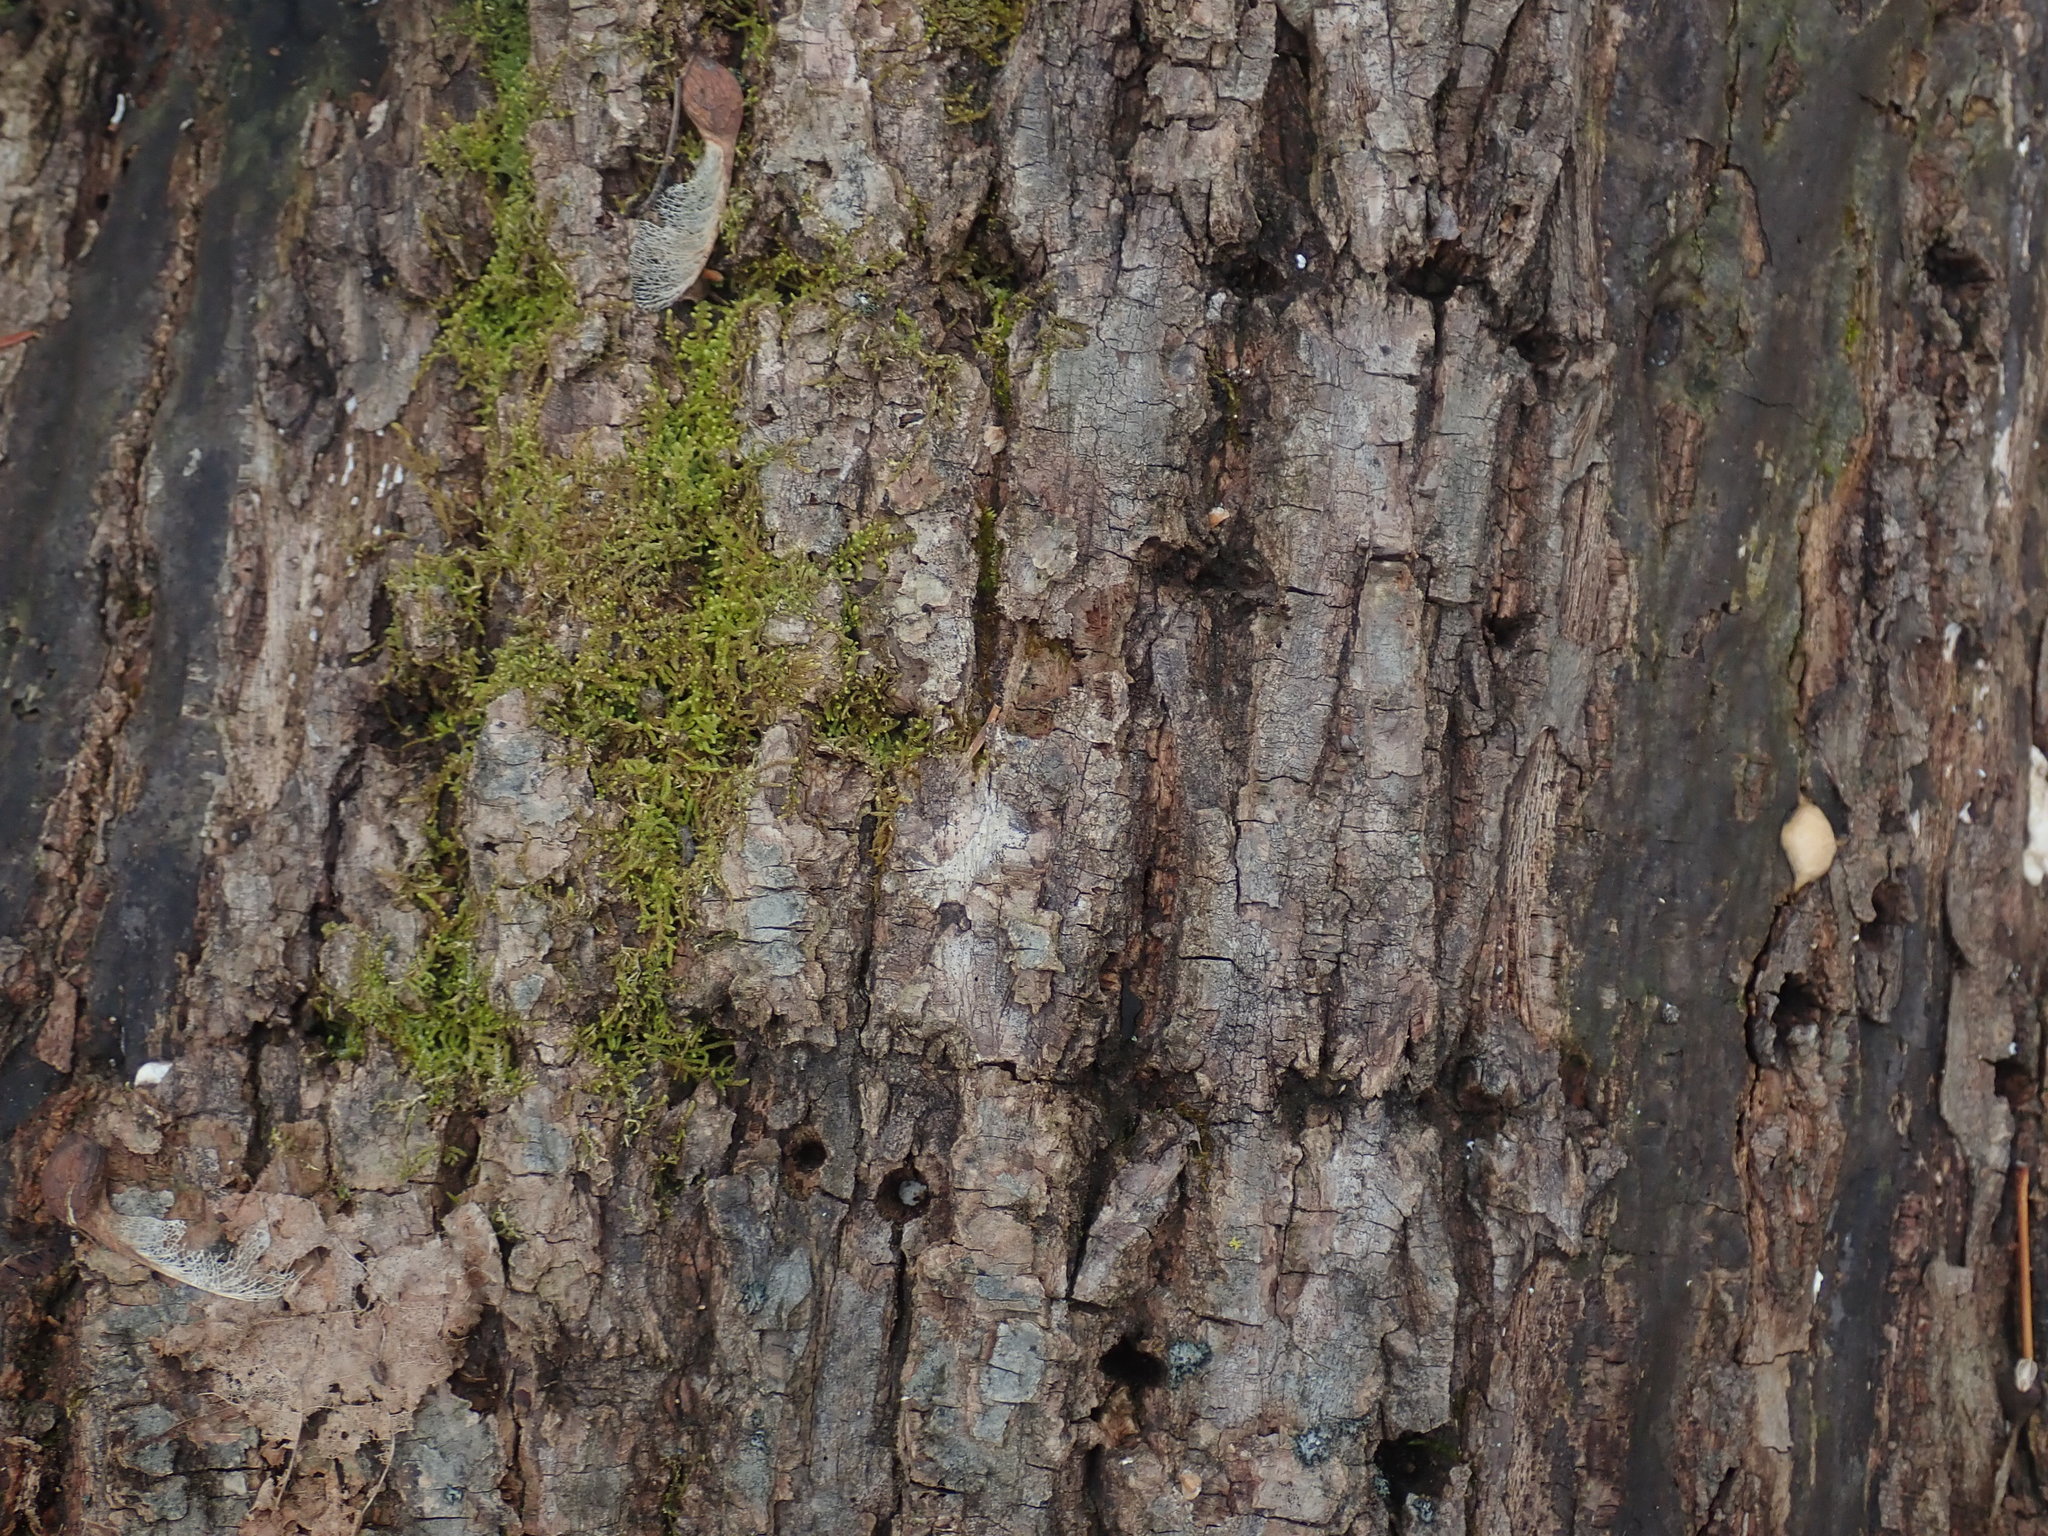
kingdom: Animalia
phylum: Chordata
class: Aves
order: Piciformes
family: Picidae
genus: Sphyrapicus
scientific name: Sphyrapicus varius
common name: Yellow-bellied sapsucker
